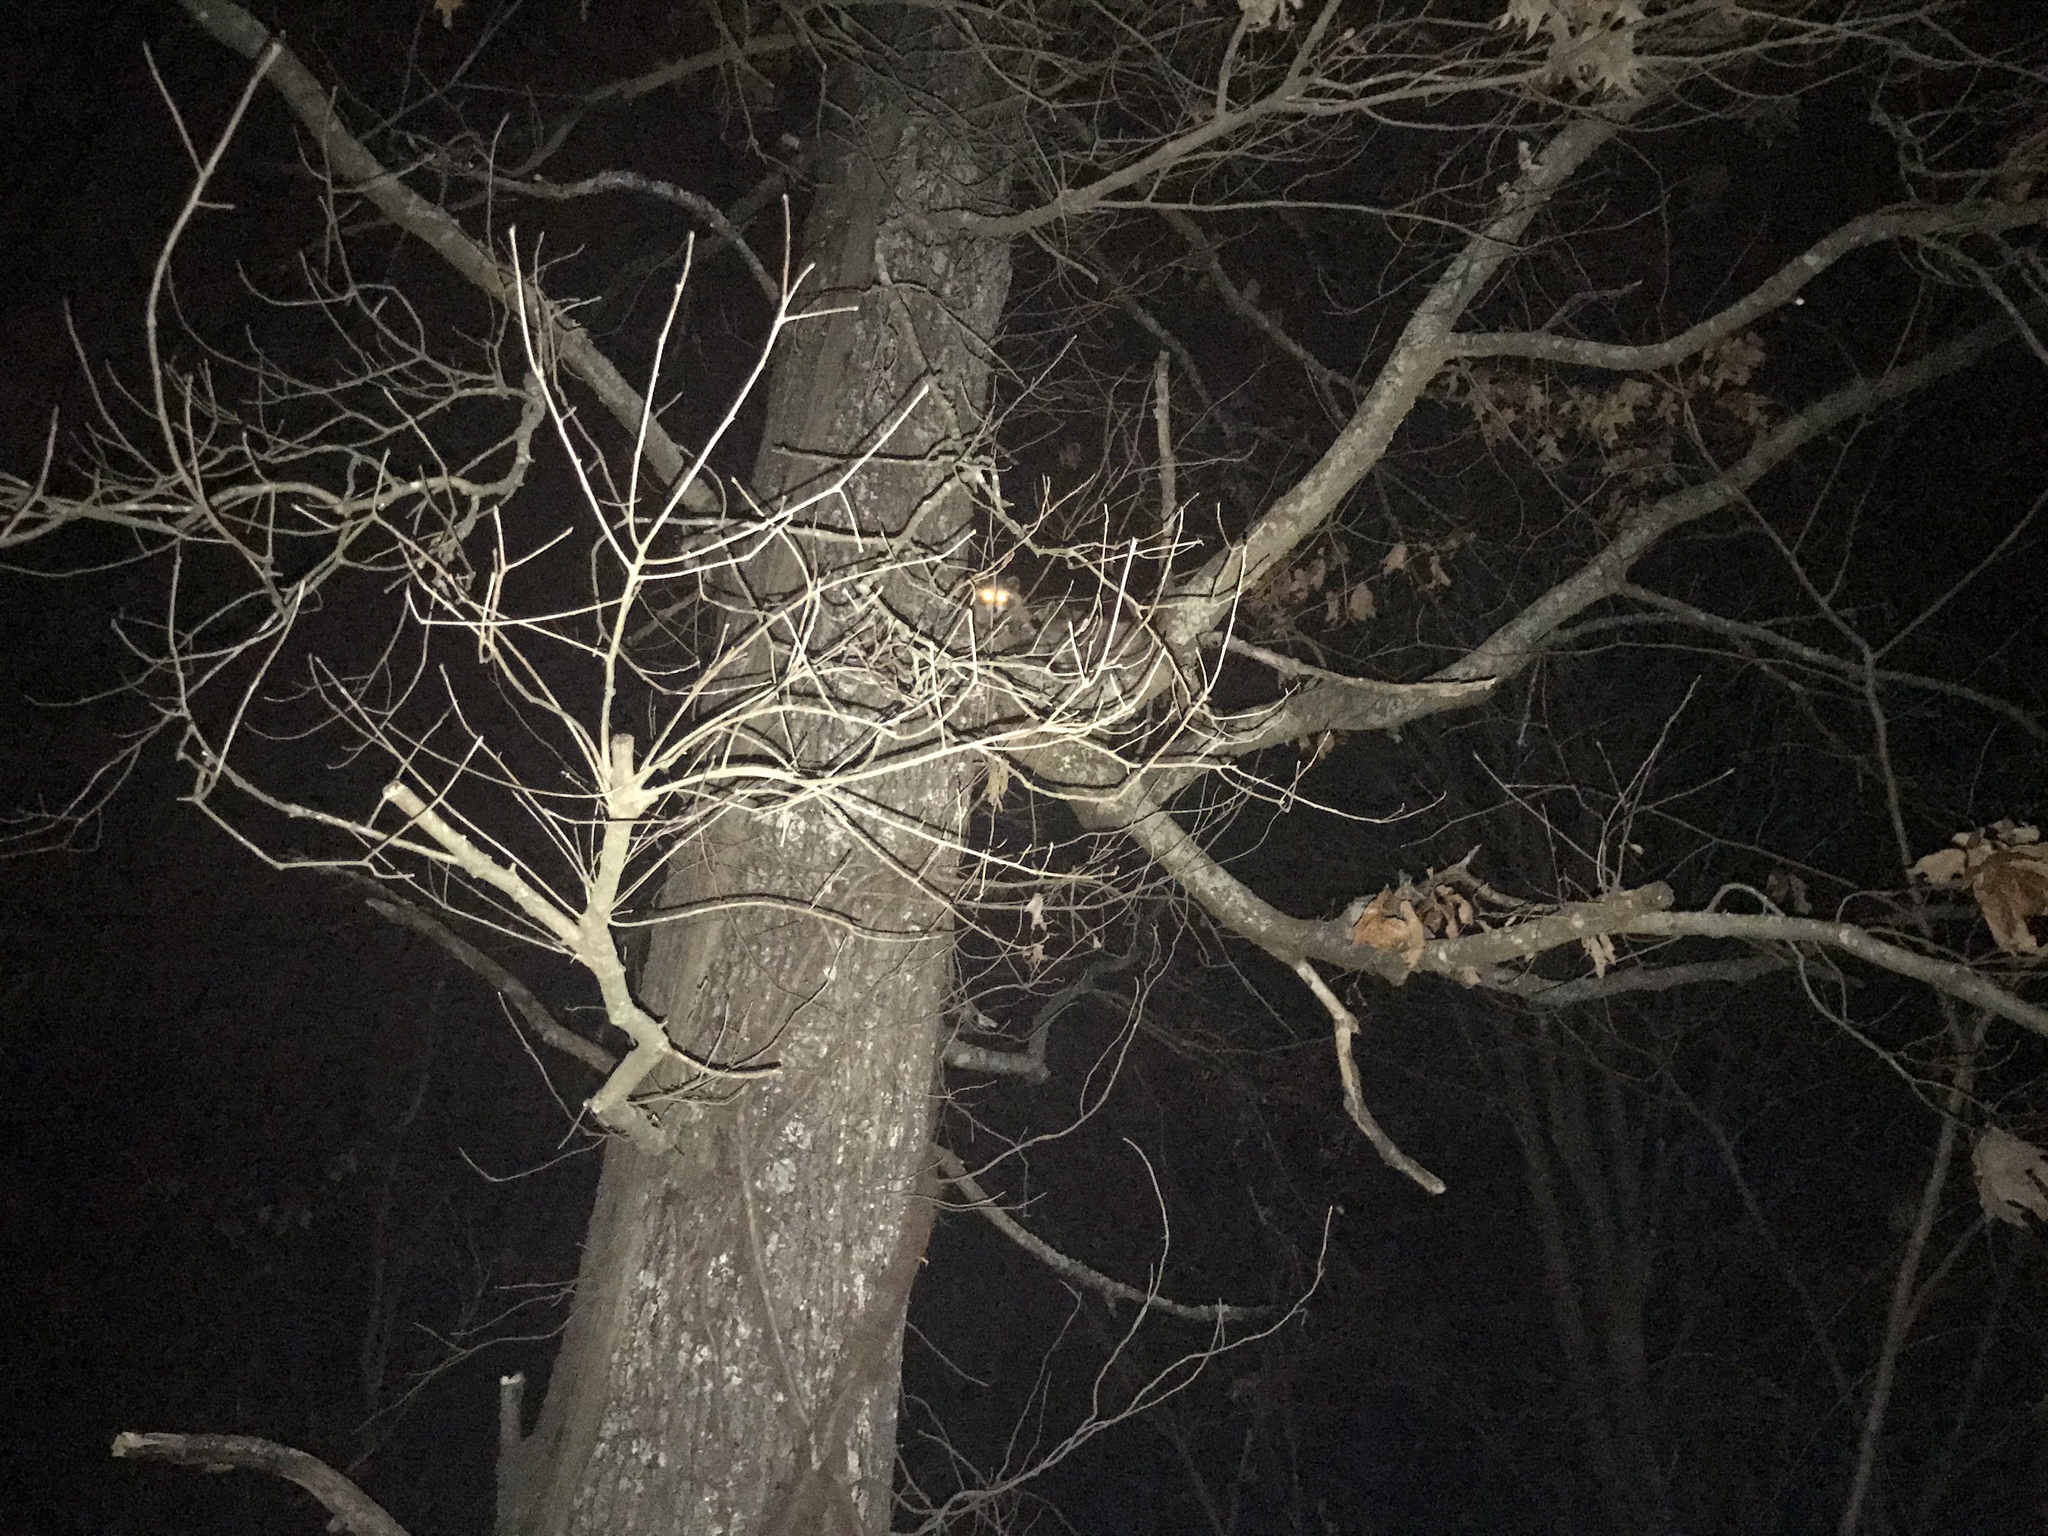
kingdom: Animalia
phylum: Chordata
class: Mammalia
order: Carnivora
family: Procyonidae
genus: Procyon
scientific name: Procyon lotor
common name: Raccoon
